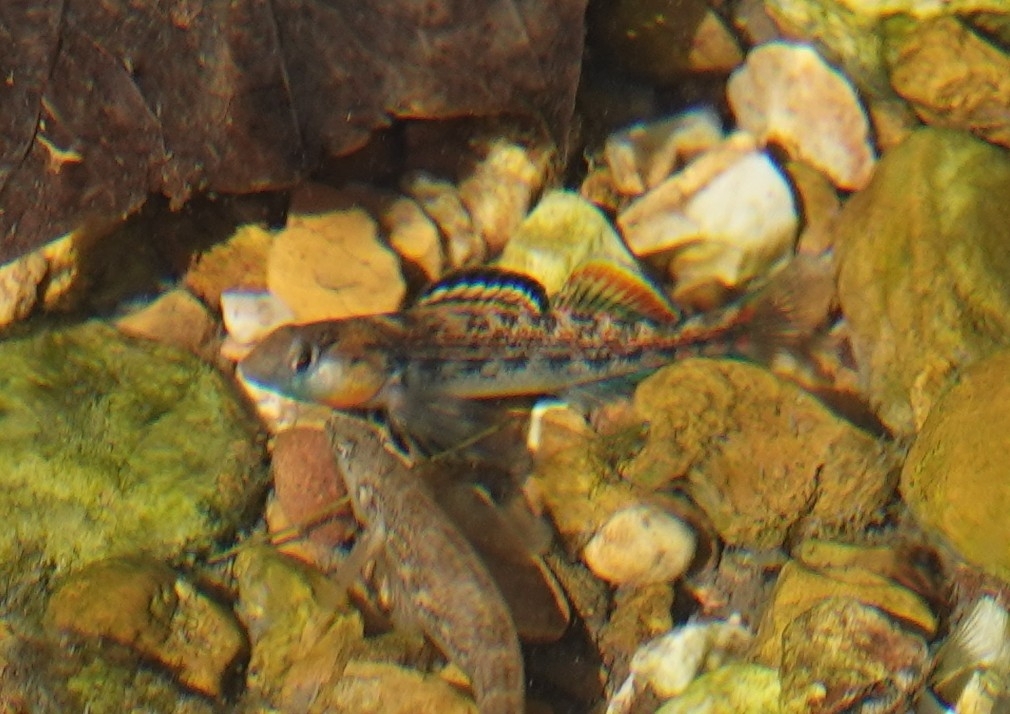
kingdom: Animalia
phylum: Chordata
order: Perciformes
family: Percidae
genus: Etheostoma
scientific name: Etheostoma spectabile
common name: Orangethroat darter
